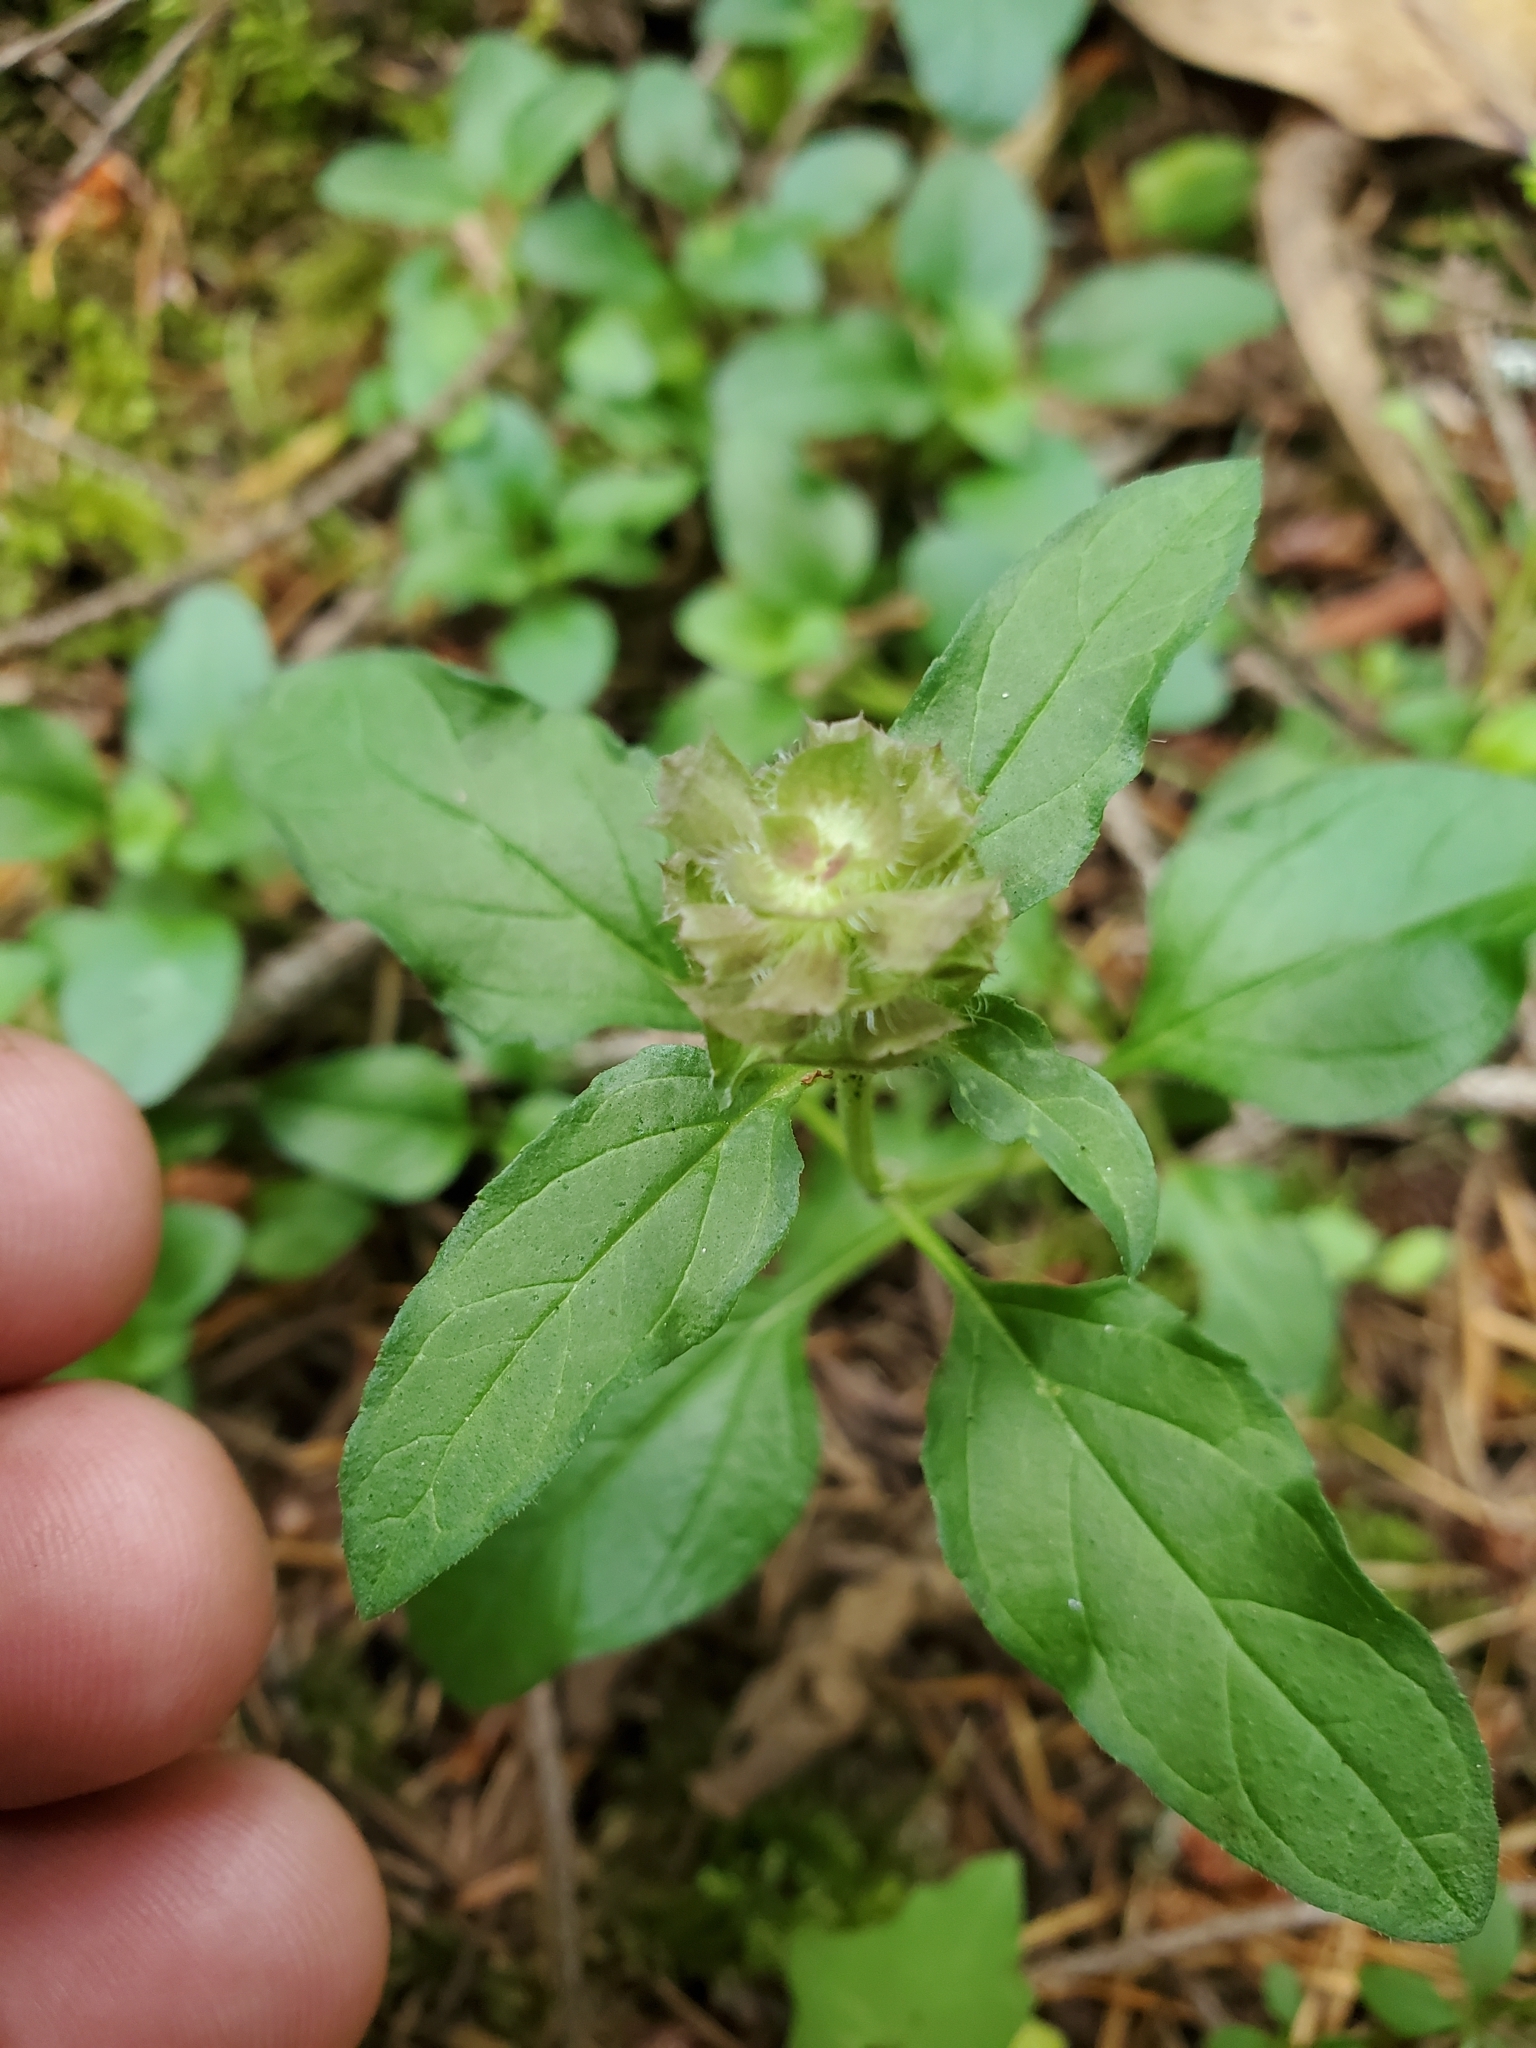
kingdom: Plantae
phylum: Tracheophyta
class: Magnoliopsida
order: Lamiales
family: Lamiaceae
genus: Prunella
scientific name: Prunella vulgaris
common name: Heal-all
